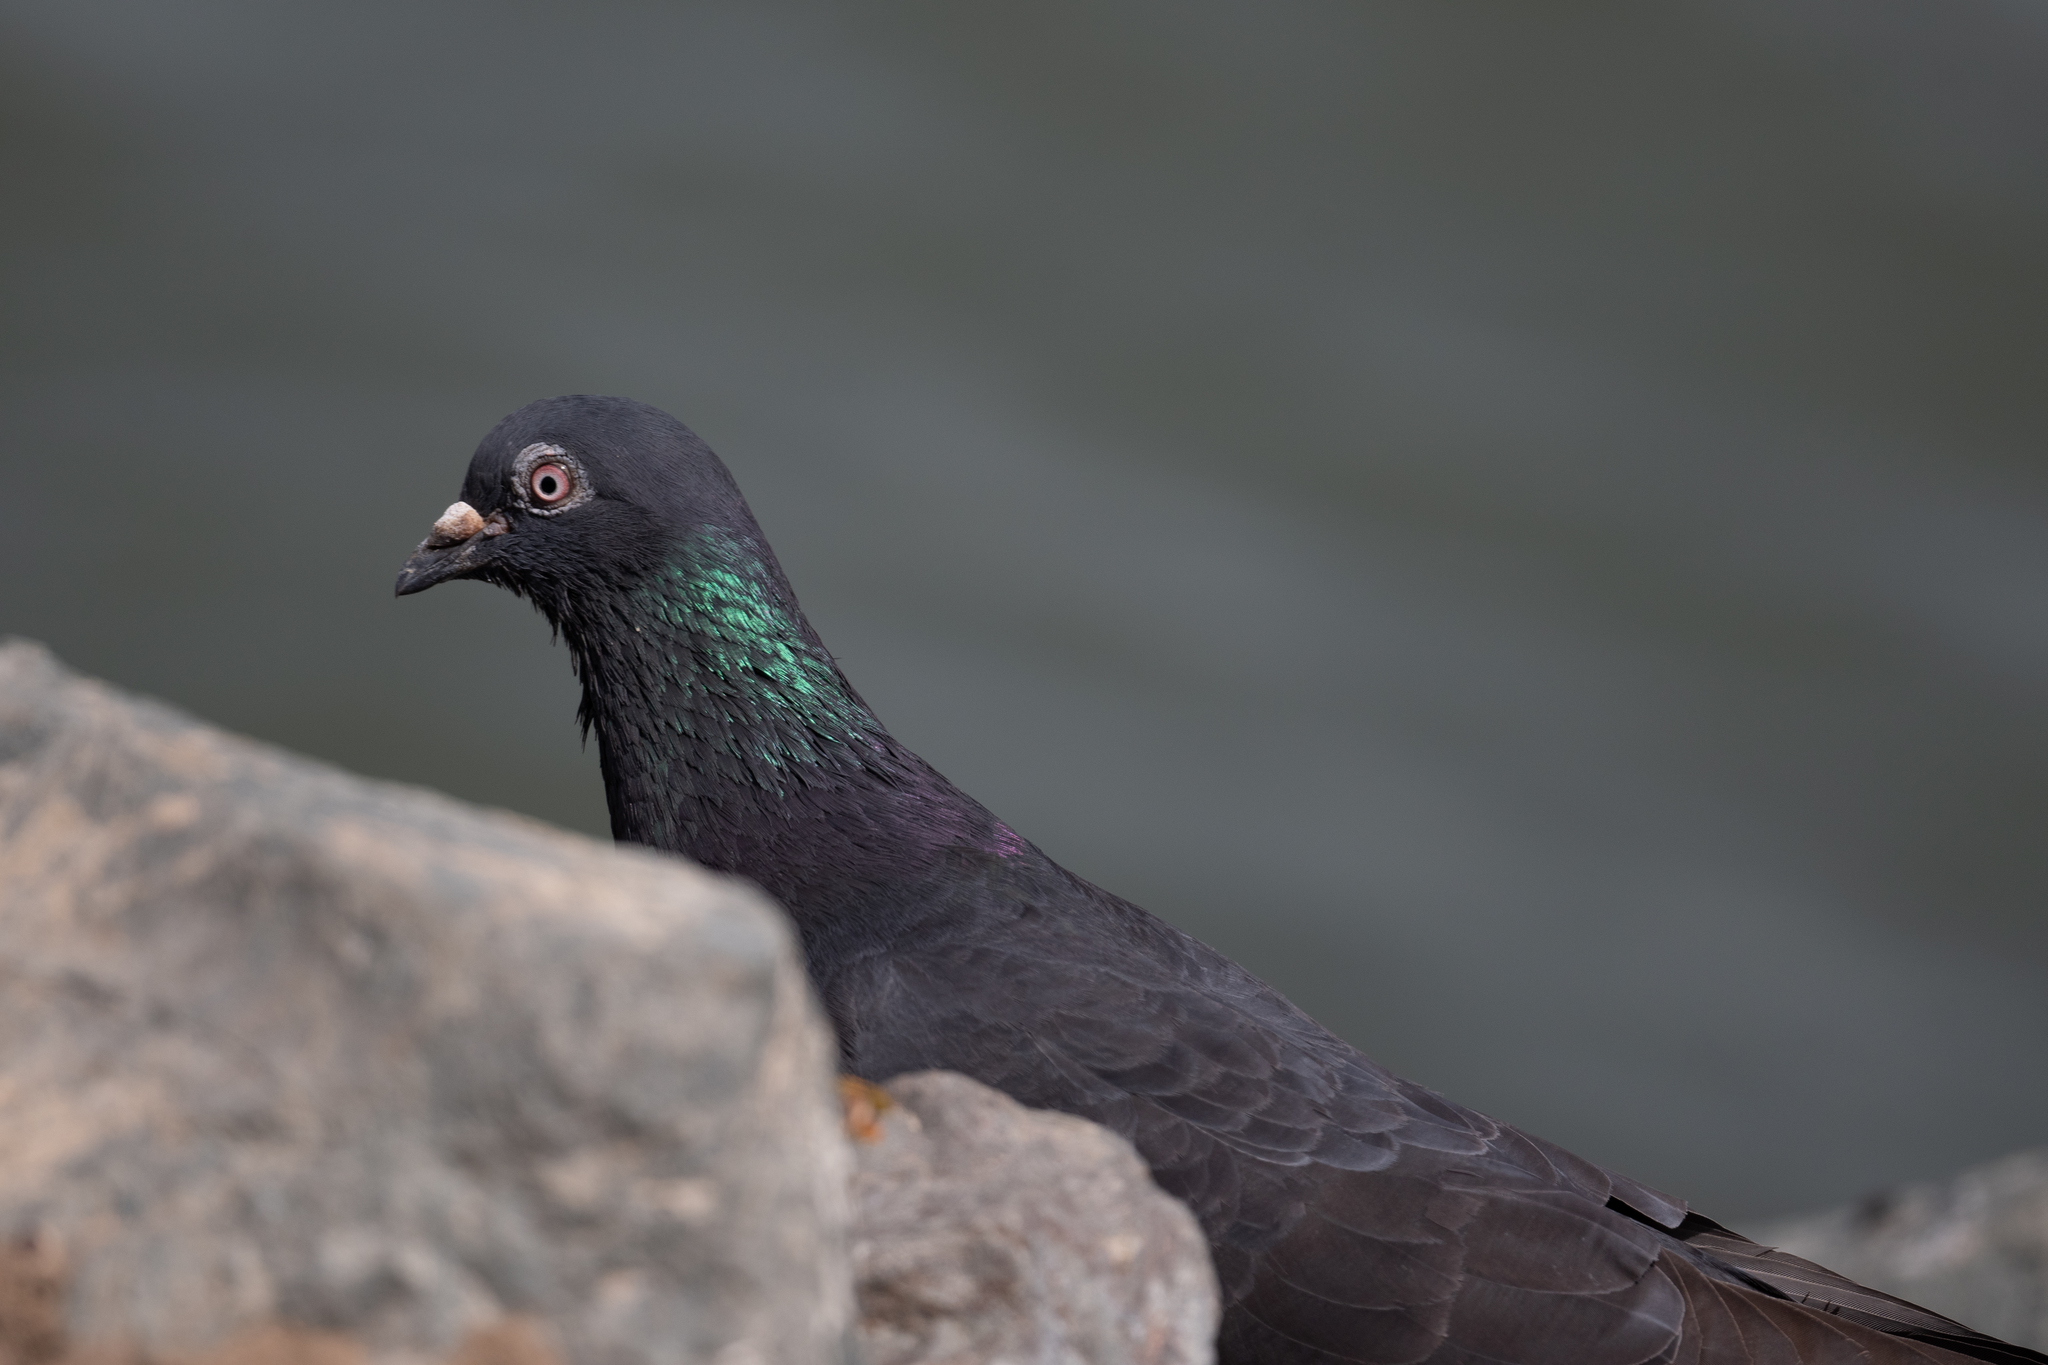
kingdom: Animalia
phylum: Chordata
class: Aves
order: Columbiformes
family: Columbidae
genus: Columba
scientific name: Columba livia
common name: Rock pigeon
